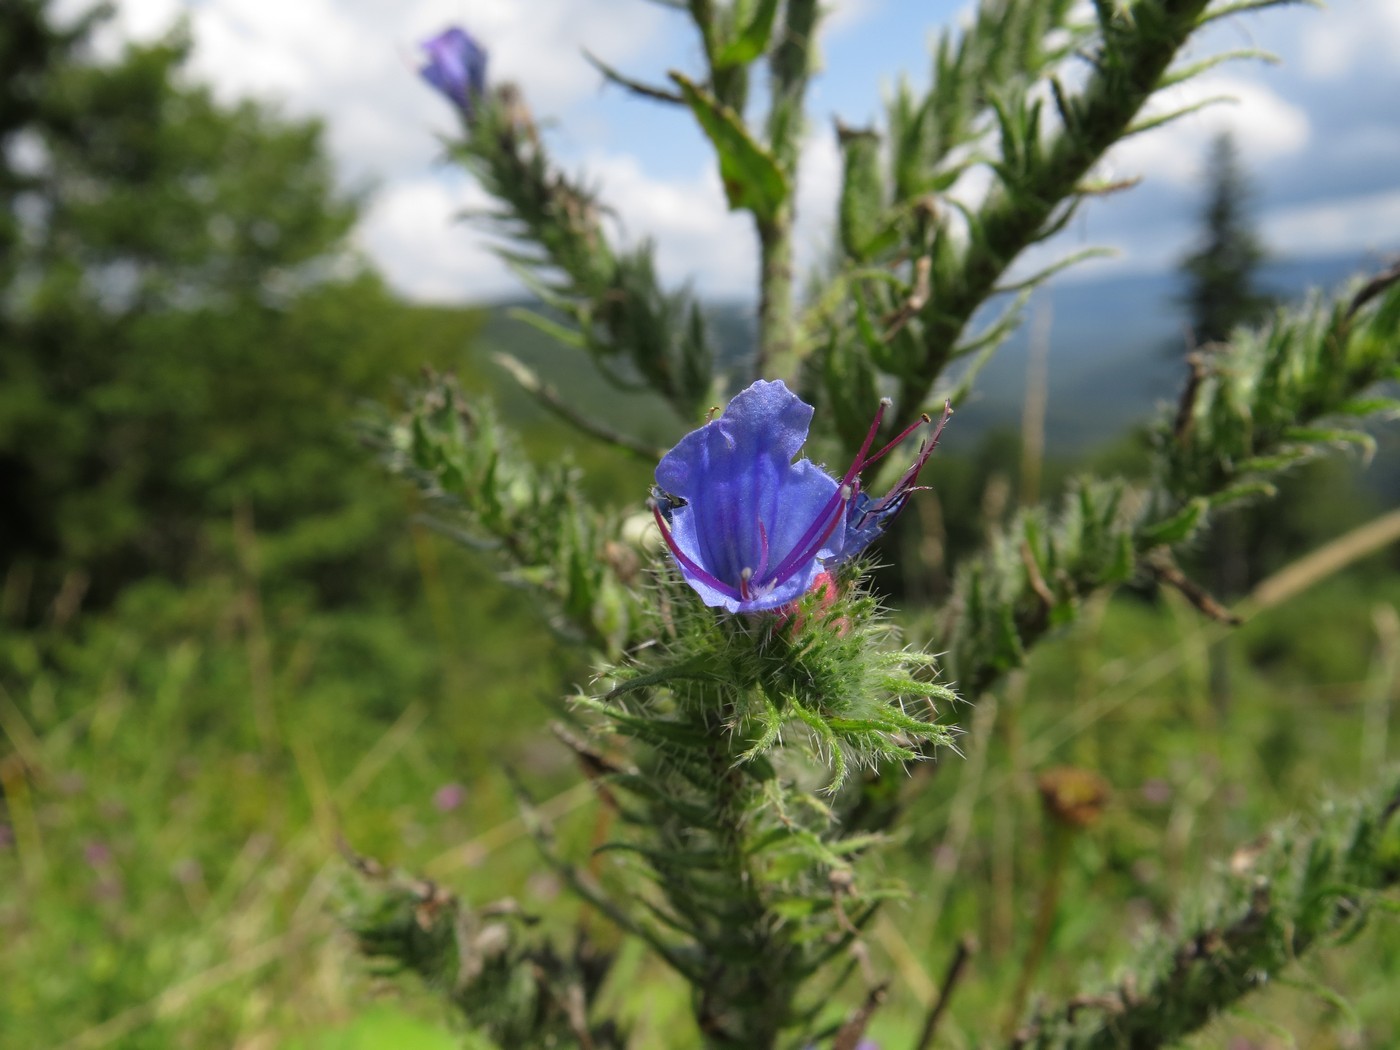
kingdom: Plantae
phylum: Tracheophyta
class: Magnoliopsida
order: Boraginales
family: Boraginaceae
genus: Echium
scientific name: Echium vulgare
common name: Common viper's bugloss
